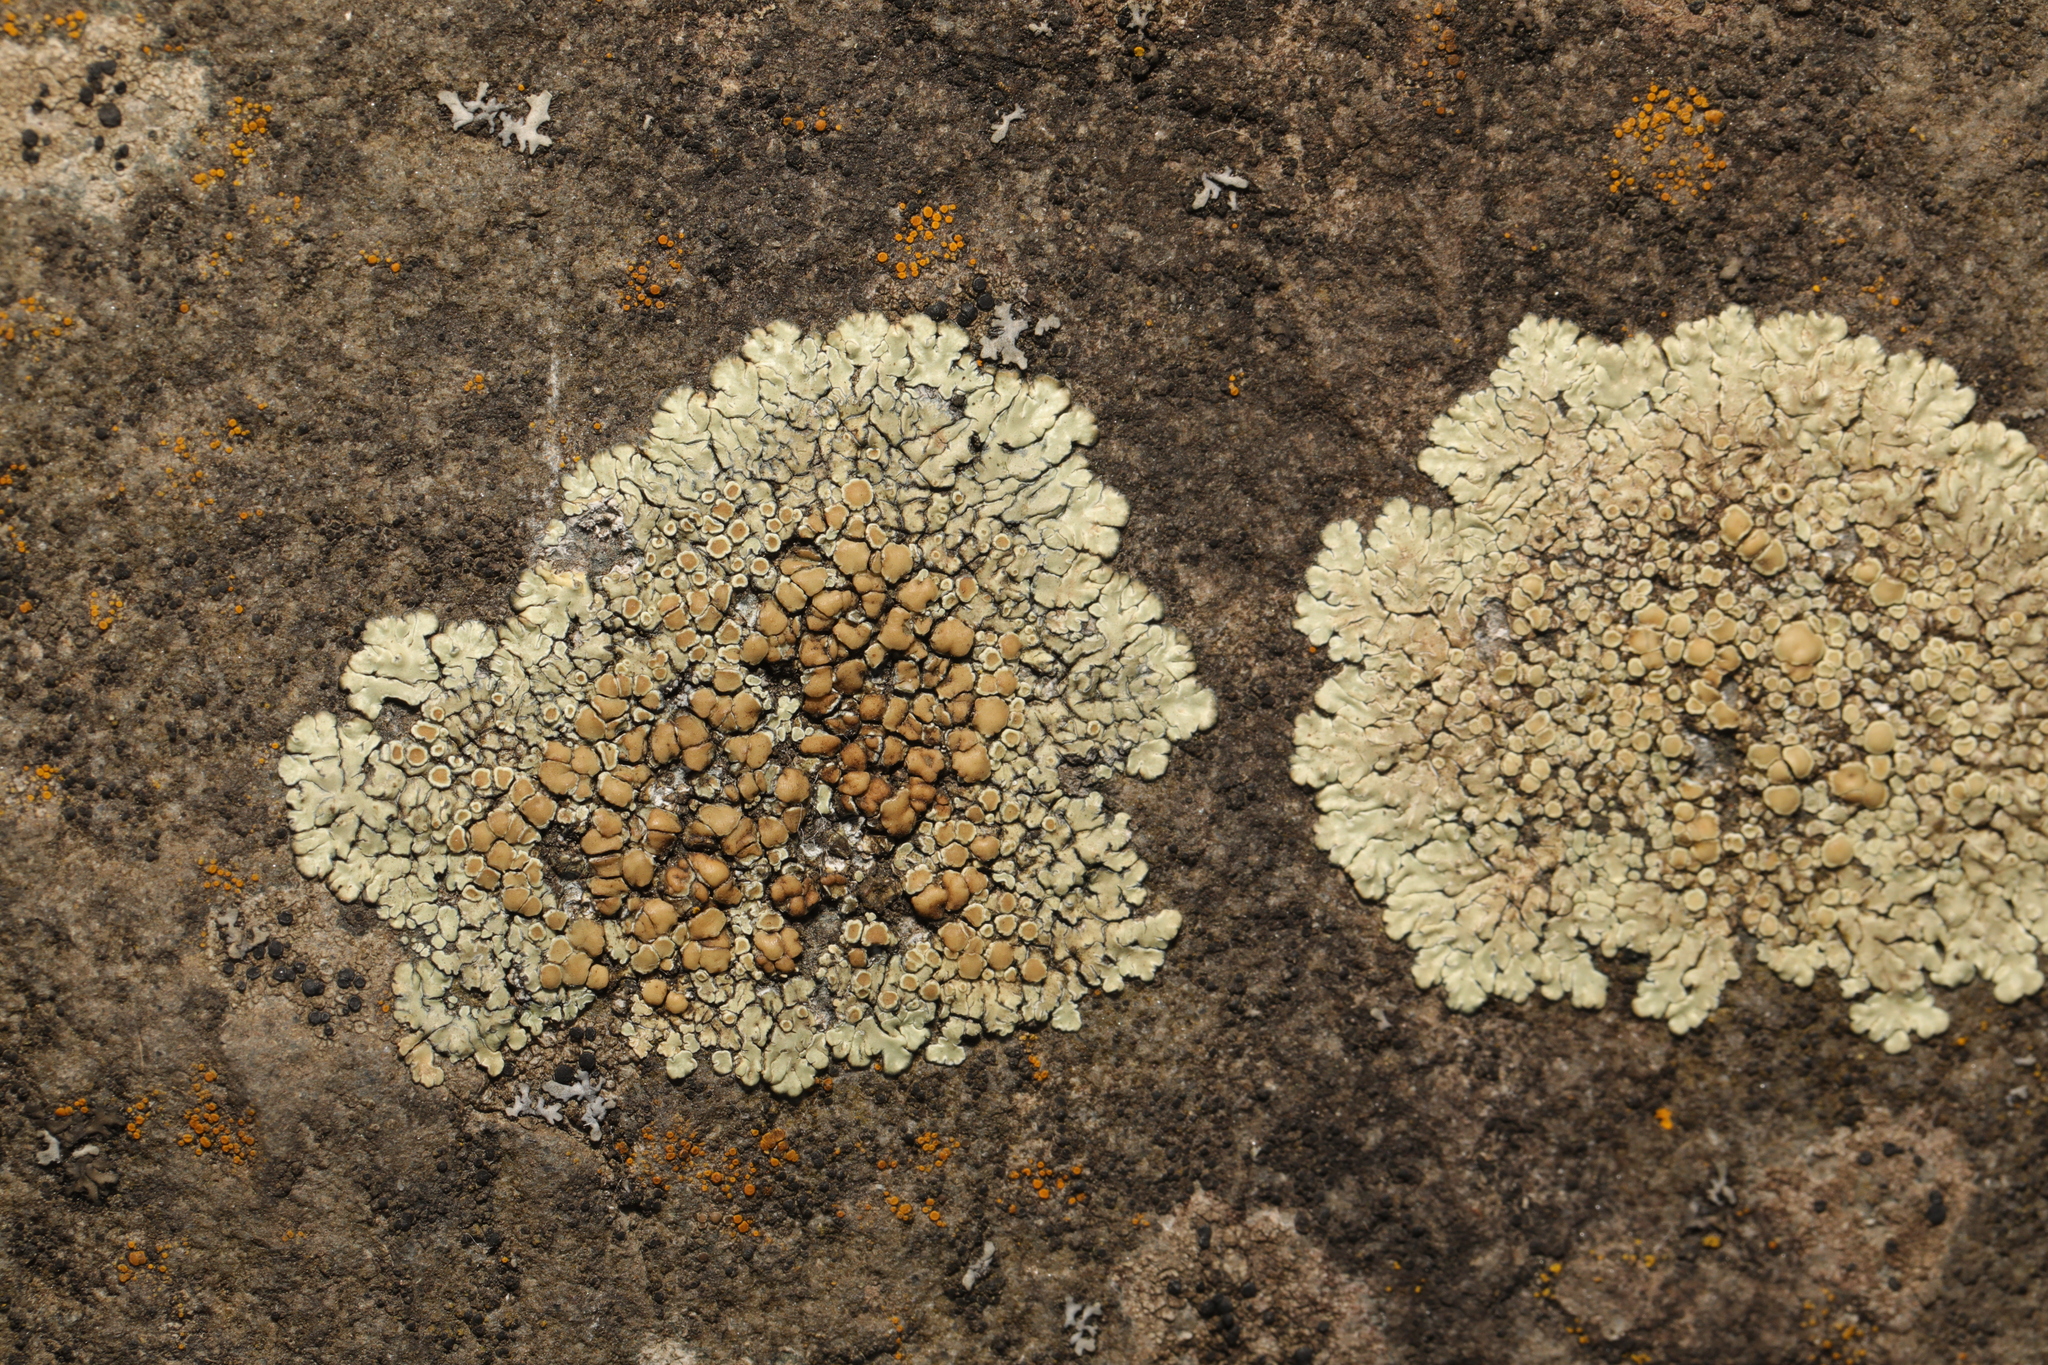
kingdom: Fungi
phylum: Ascomycota
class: Lecanoromycetes
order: Lecanorales
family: Lecanoraceae
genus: Protoparmeliopsis
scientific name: Protoparmeliopsis muralis
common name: Stonewall rim lichen
